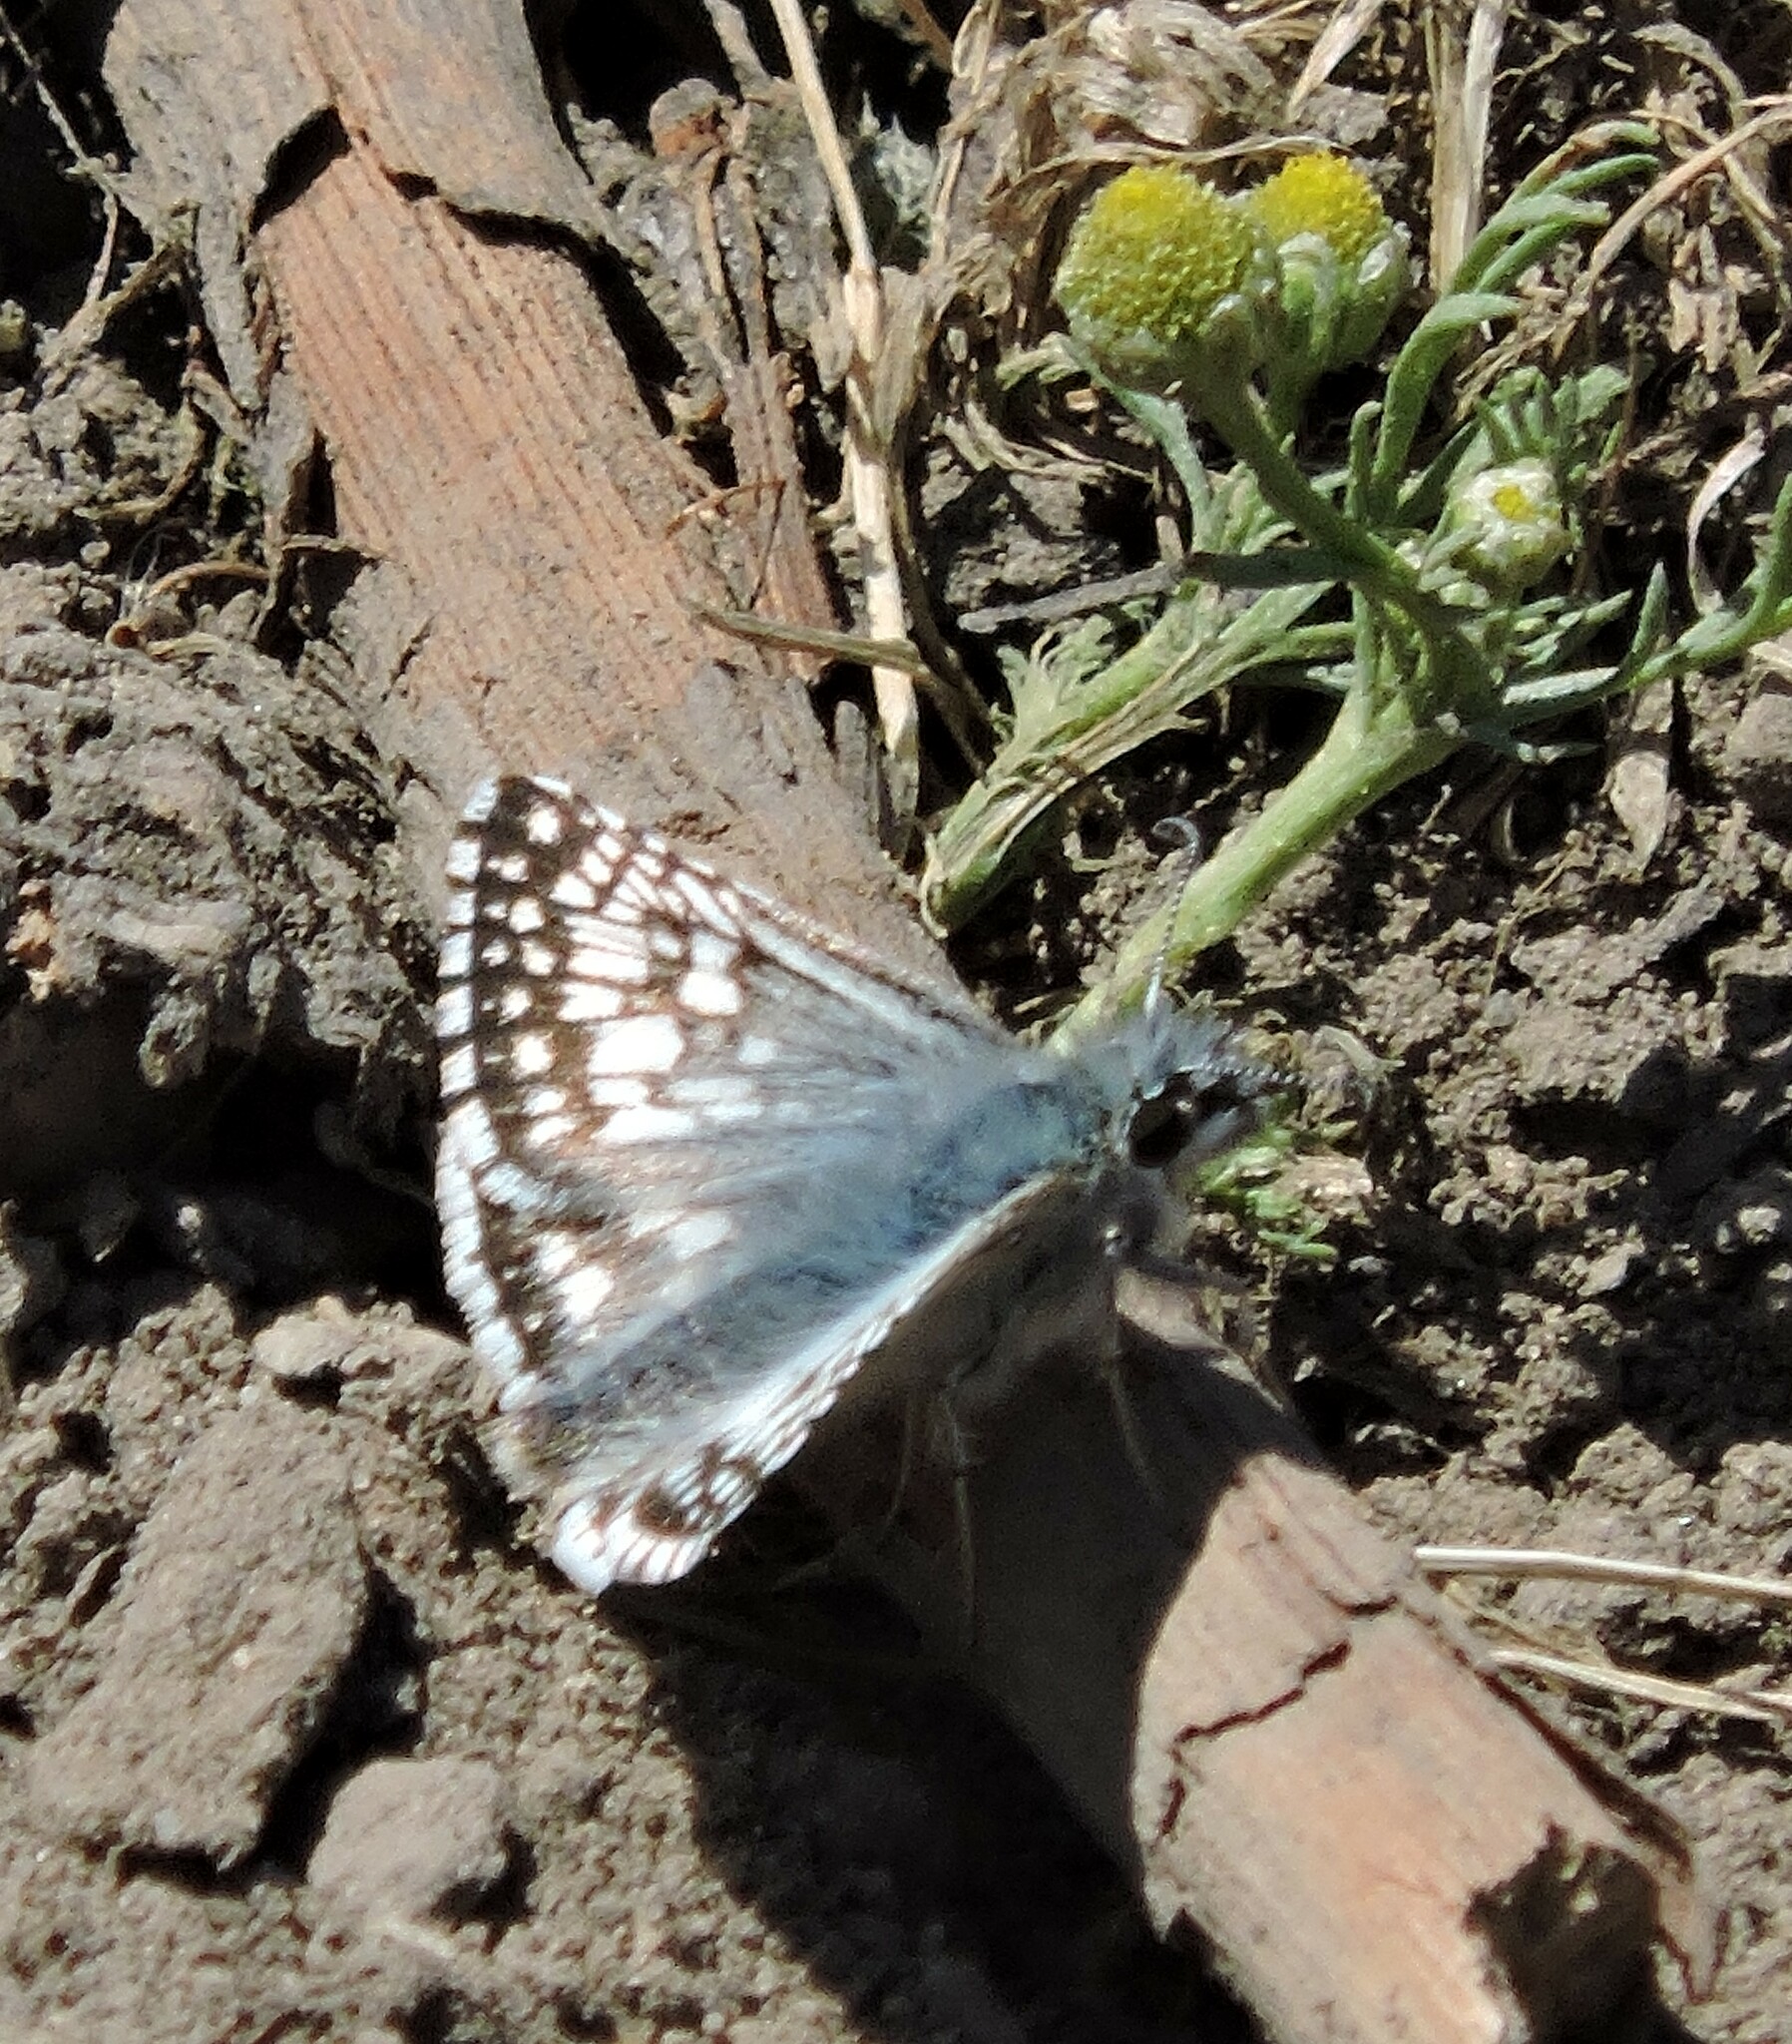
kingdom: Animalia
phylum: Arthropoda
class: Insecta
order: Lepidoptera
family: Hesperiidae
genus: Burnsius
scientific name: Burnsius communis
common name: Common checkered-skipper
